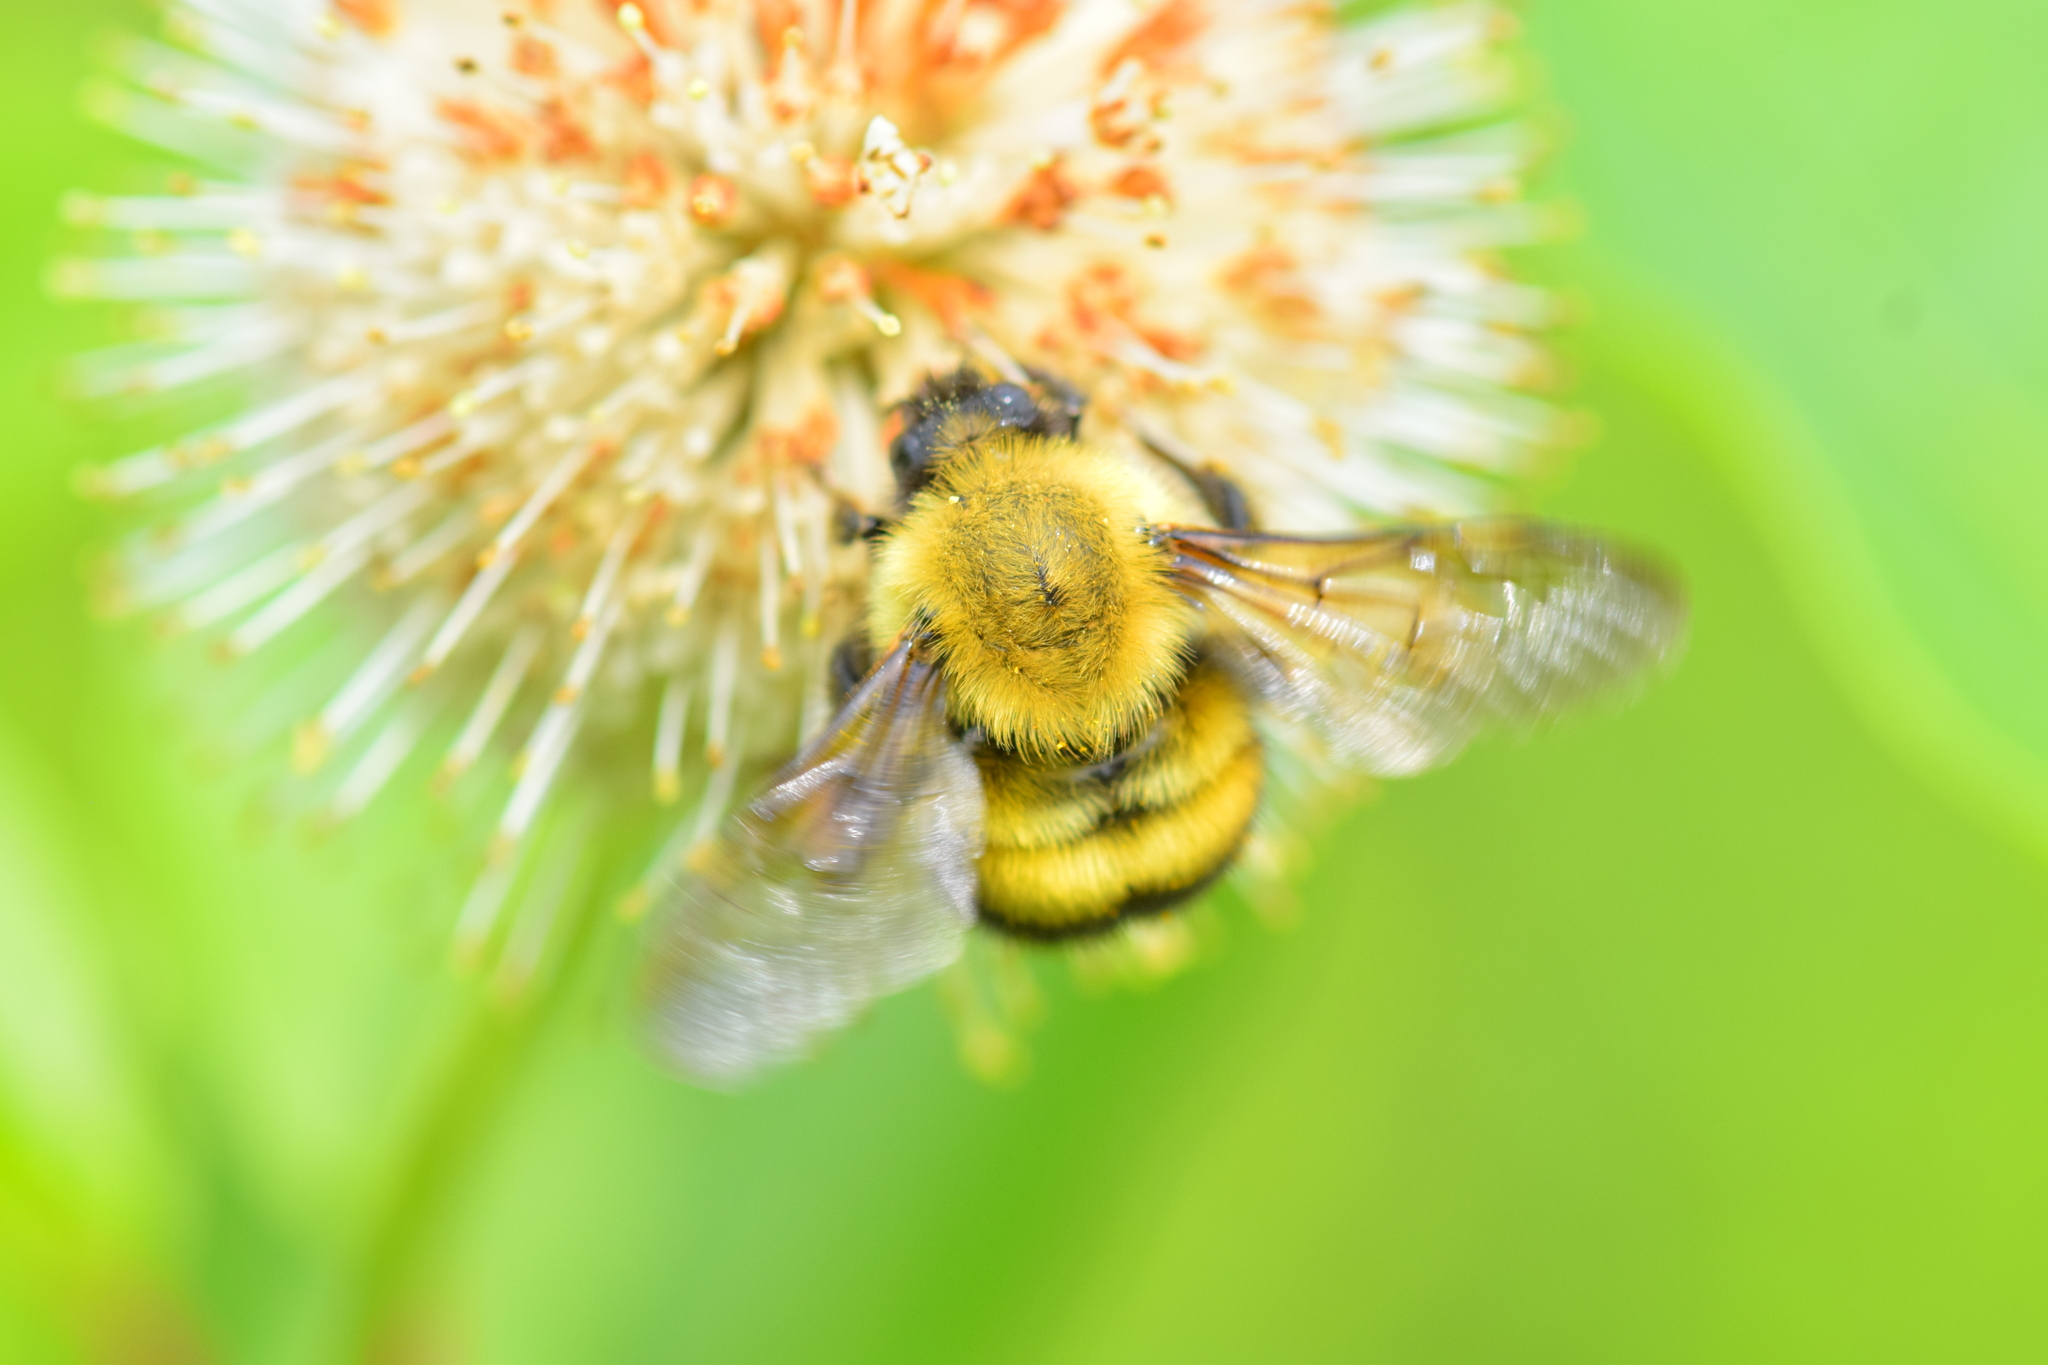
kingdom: Animalia
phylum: Arthropoda
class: Insecta
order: Hymenoptera
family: Apidae
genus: Bombus
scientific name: Bombus perplexus
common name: Confusing bumble bee
